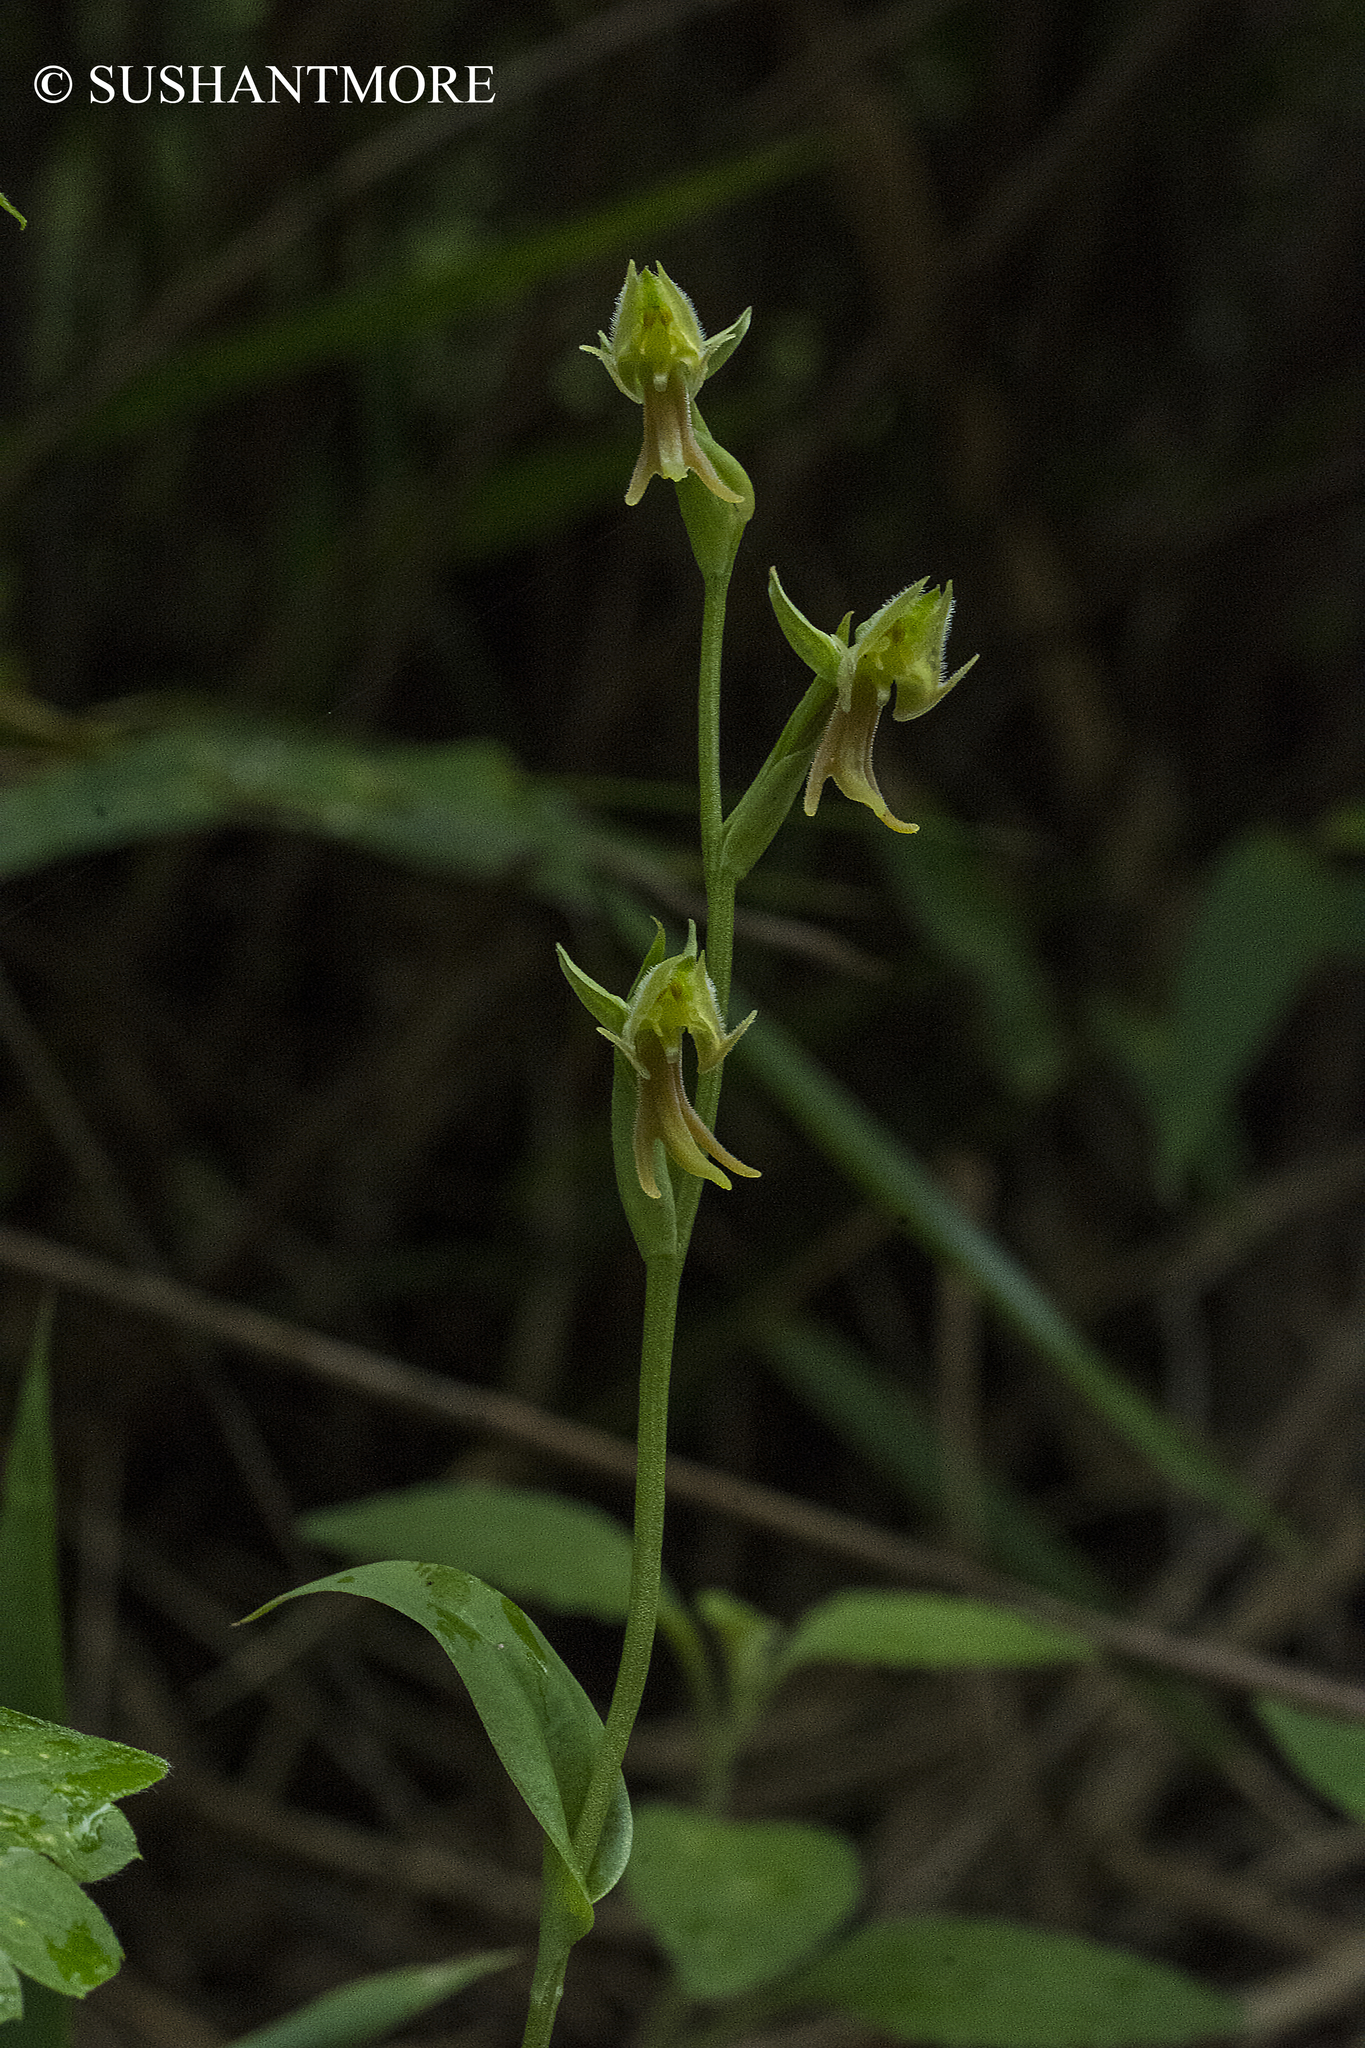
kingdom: Plantae
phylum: Tracheophyta
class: Liliopsida
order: Asparagales
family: Orchidaceae
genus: Habenaria
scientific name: Habenaria barbata
